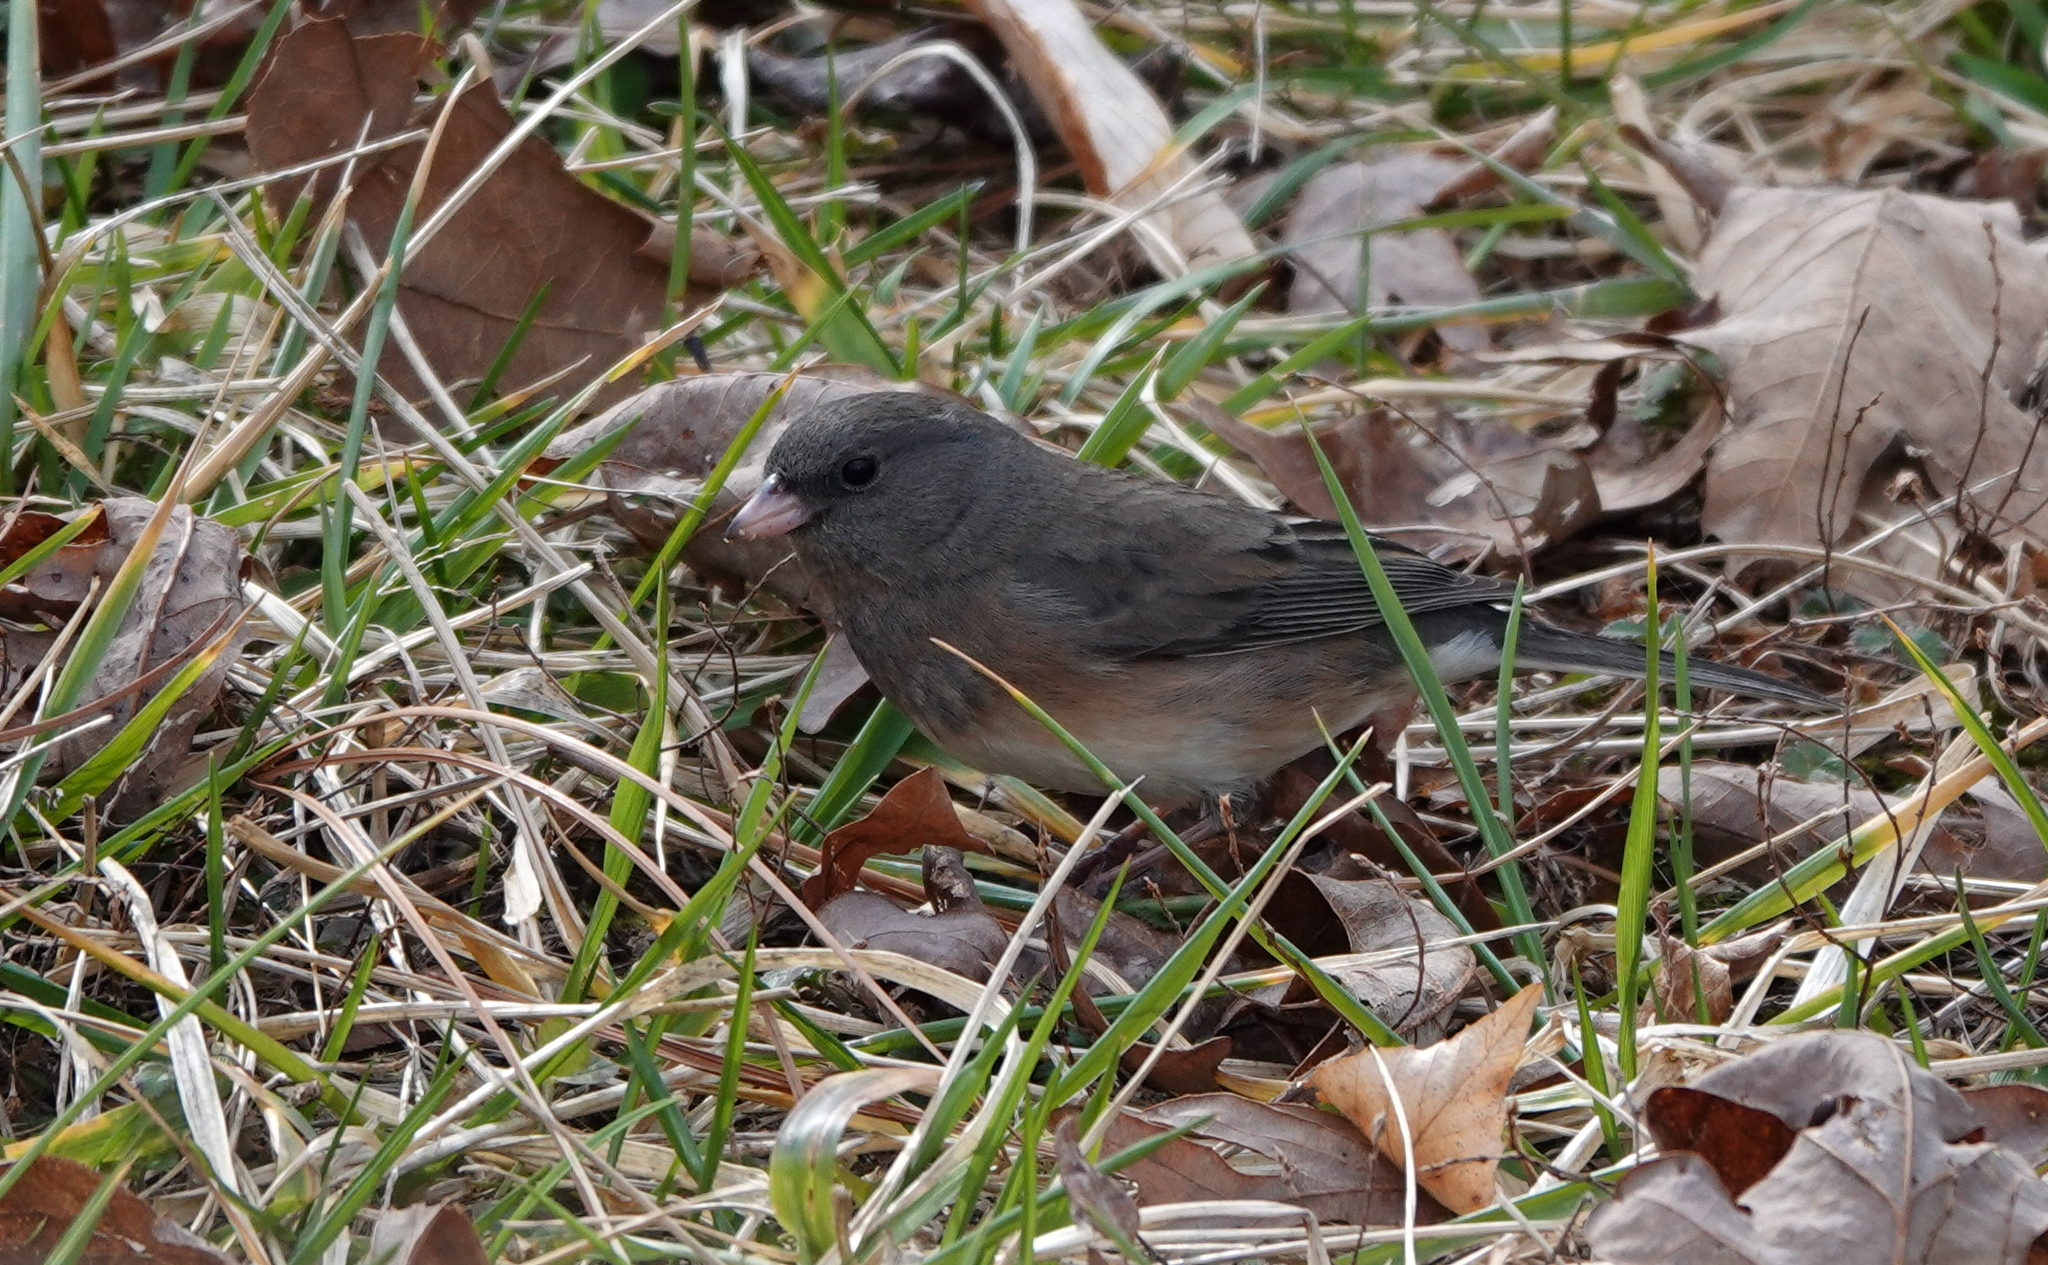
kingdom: Animalia
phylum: Chordata
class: Aves
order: Passeriformes
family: Passerellidae
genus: Junco
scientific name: Junco hyemalis
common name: Dark-eyed junco
